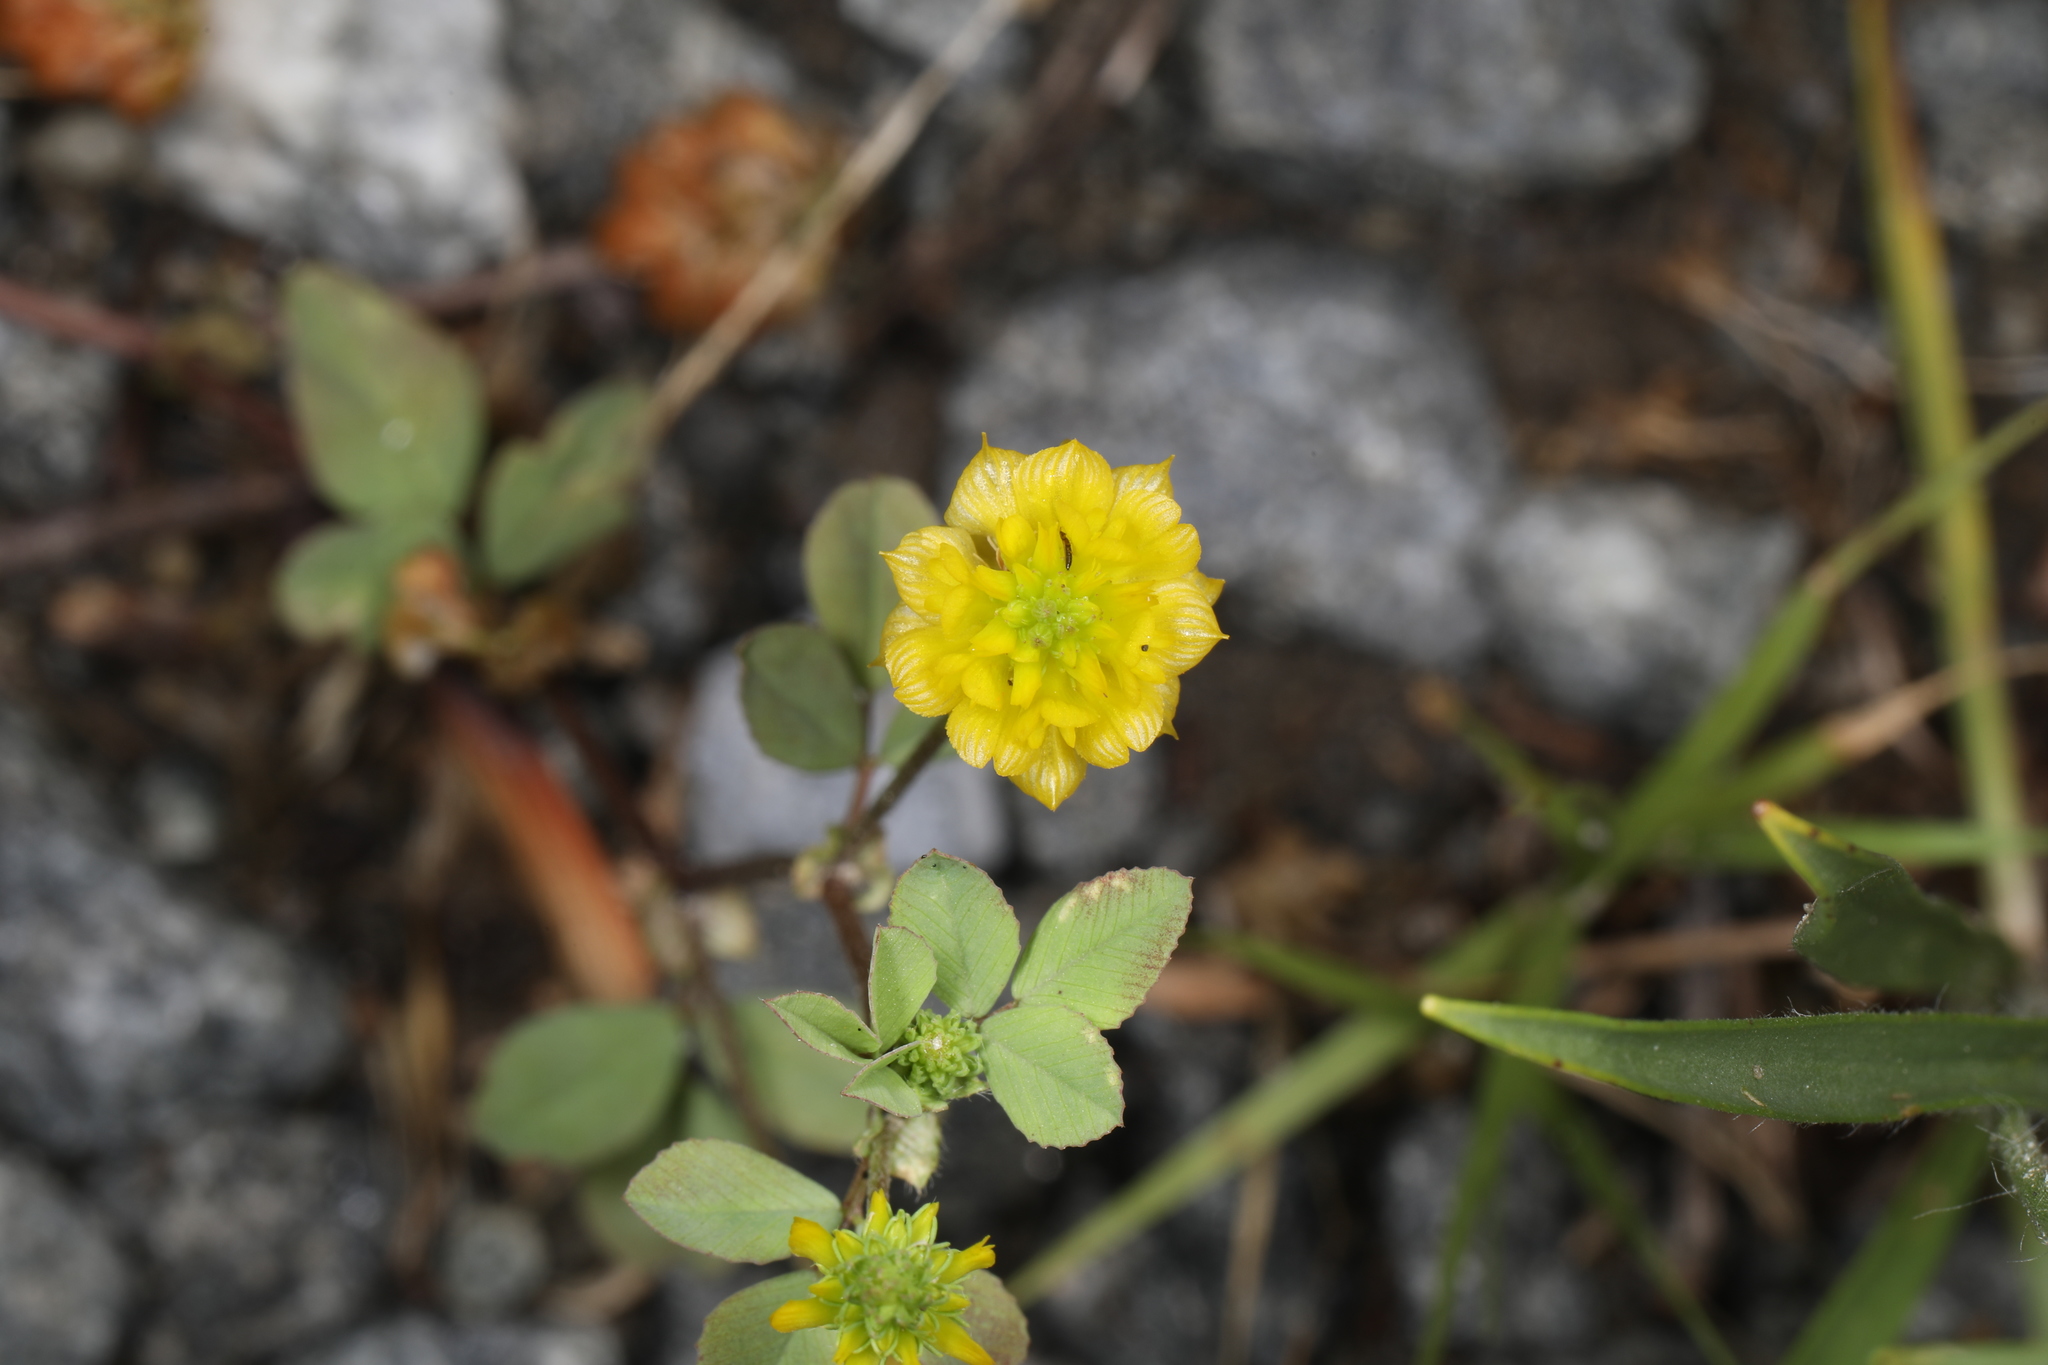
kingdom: Plantae
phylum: Tracheophyta
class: Magnoliopsida
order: Fabales
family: Fabaceae
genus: Trifolium
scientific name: Trifolium campestre
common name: Field clover
